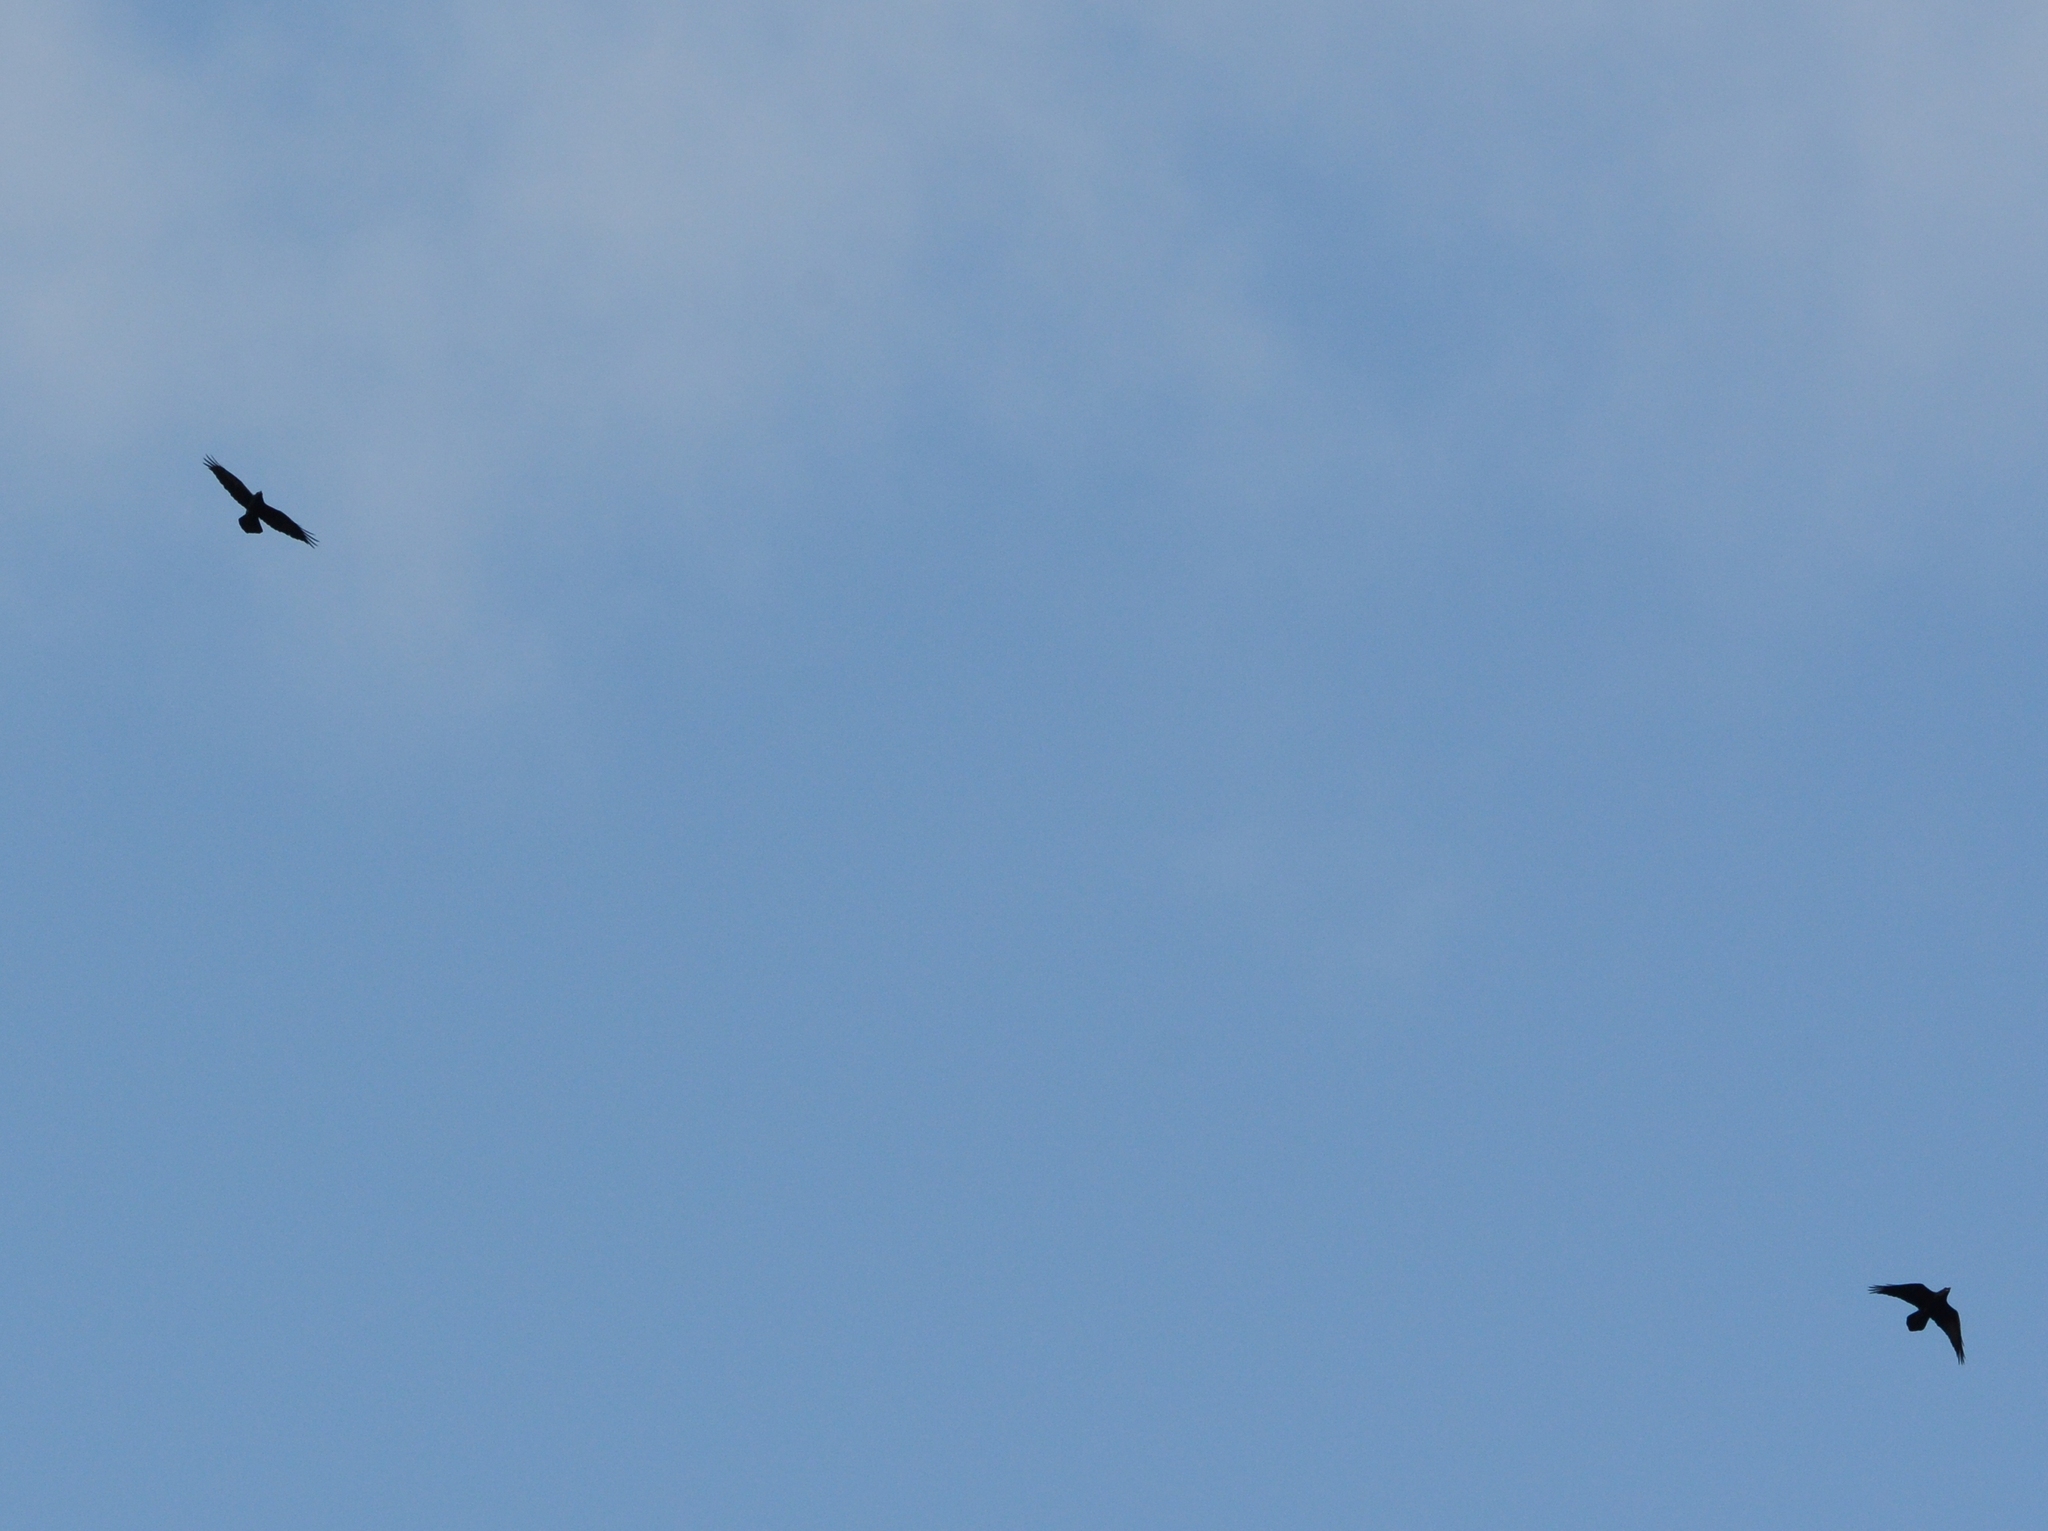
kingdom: Animalia
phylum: Chordata
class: Aves
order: Passeriformes
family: Corvidae
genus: Corvus
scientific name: Corvus corax
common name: Common raven
